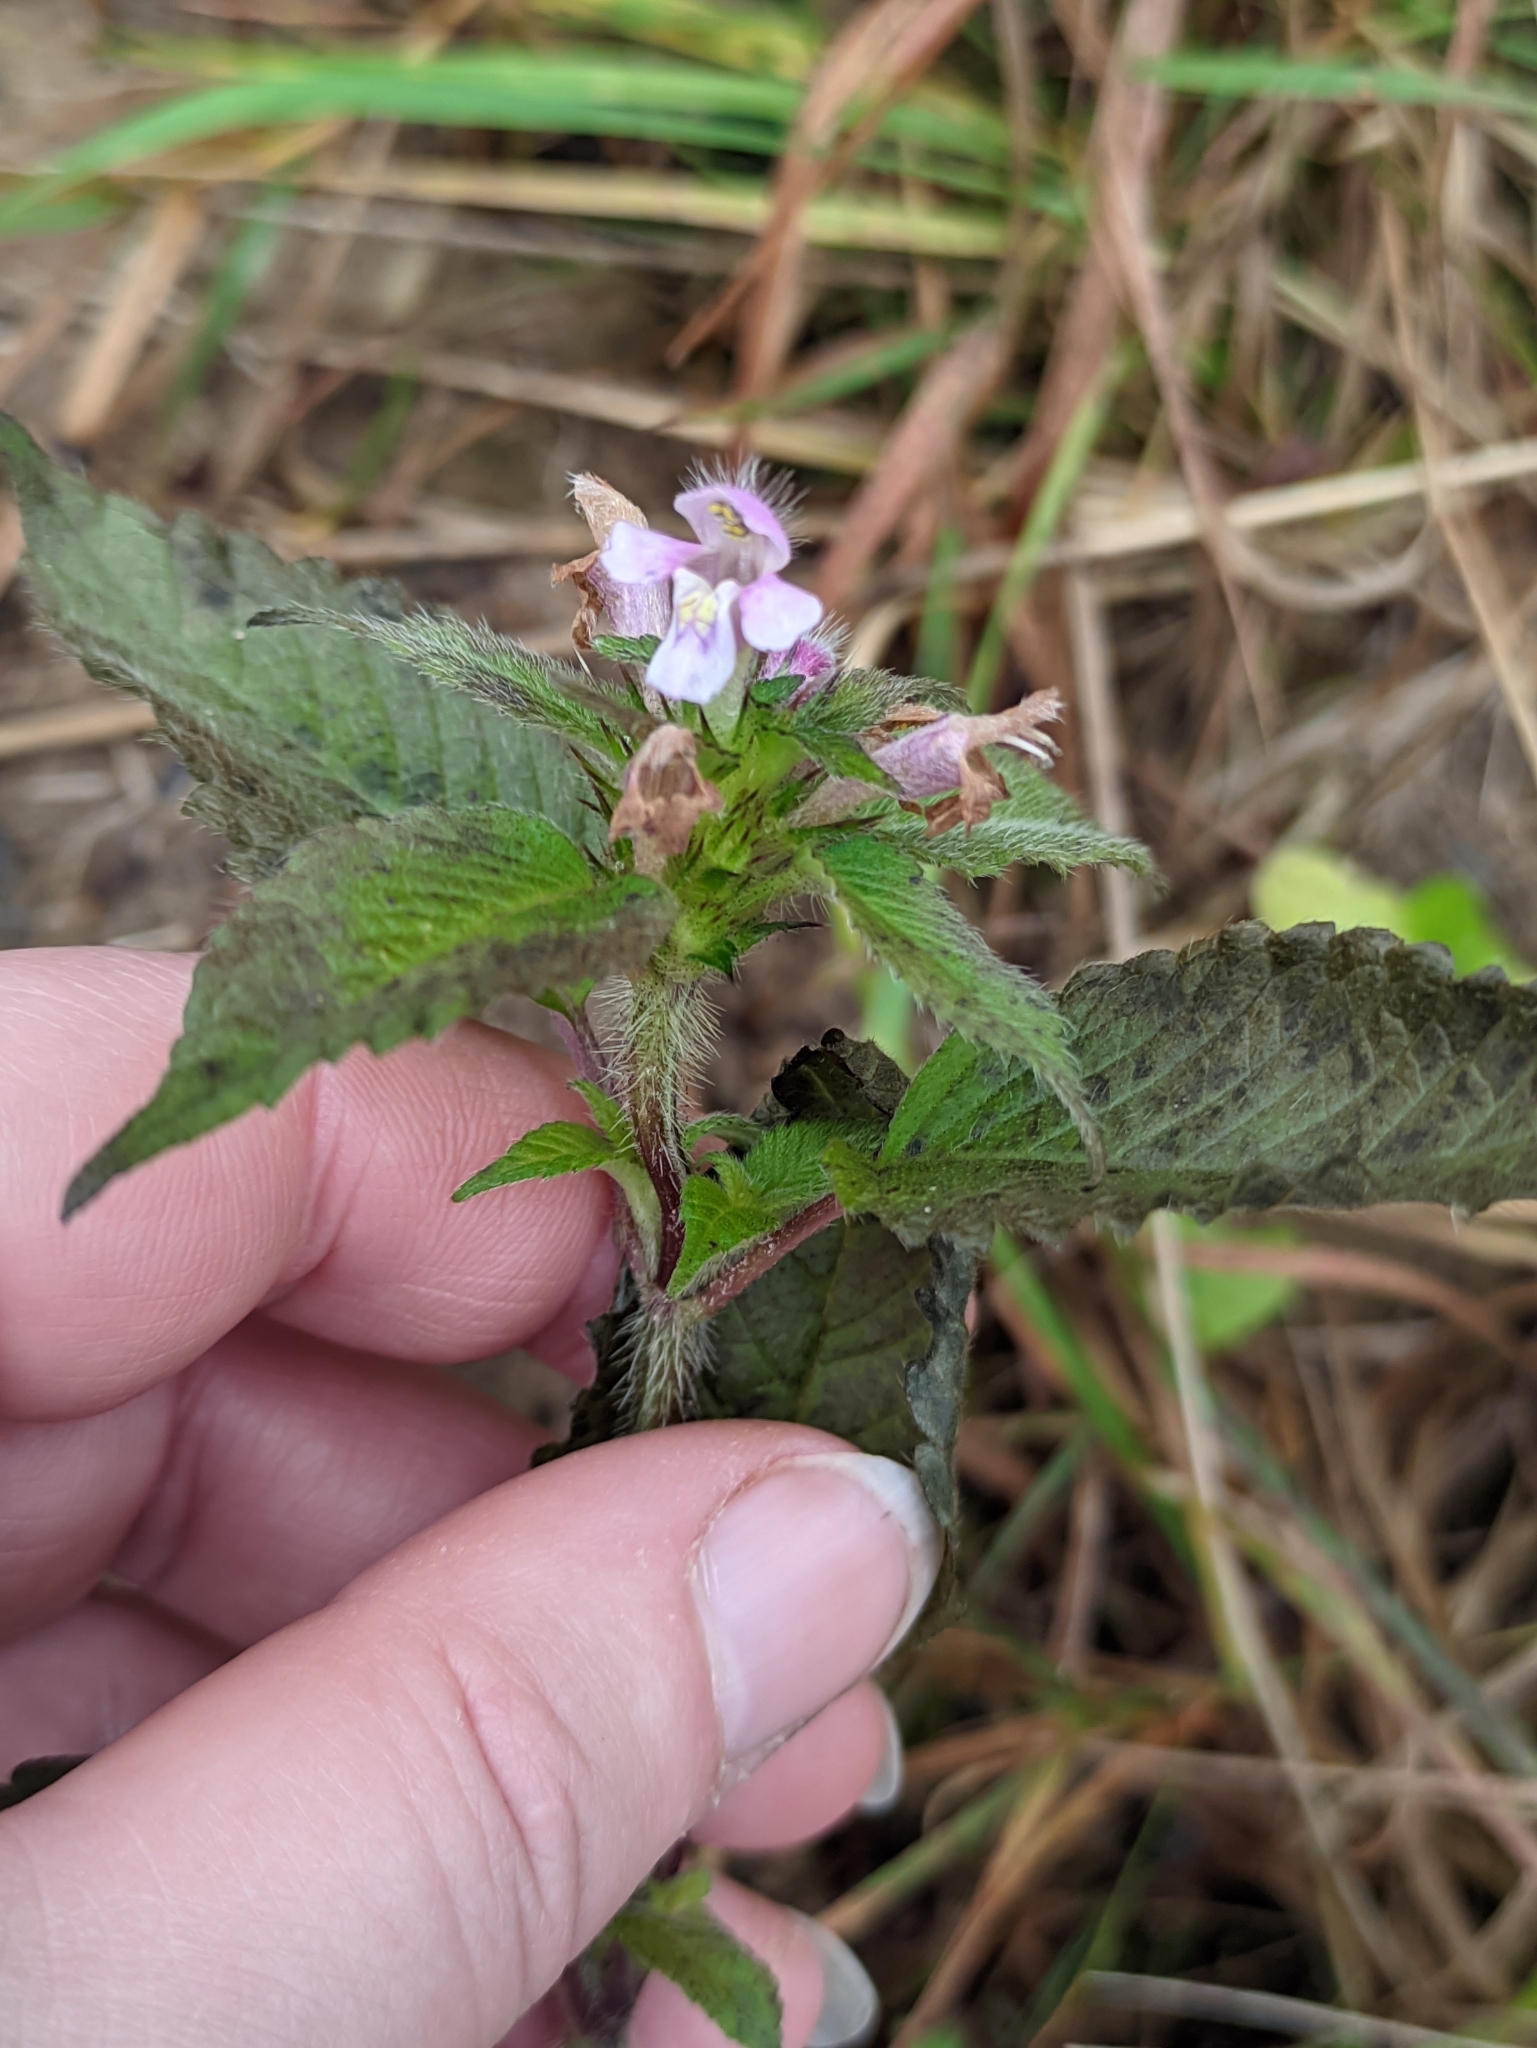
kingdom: Plantae
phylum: Tracheophyta
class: Magnoliopsida
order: Lamiales
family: Lamiaceae
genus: Galeopsis
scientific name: Galeopsis tetrahit
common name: Common hemp-nettle
